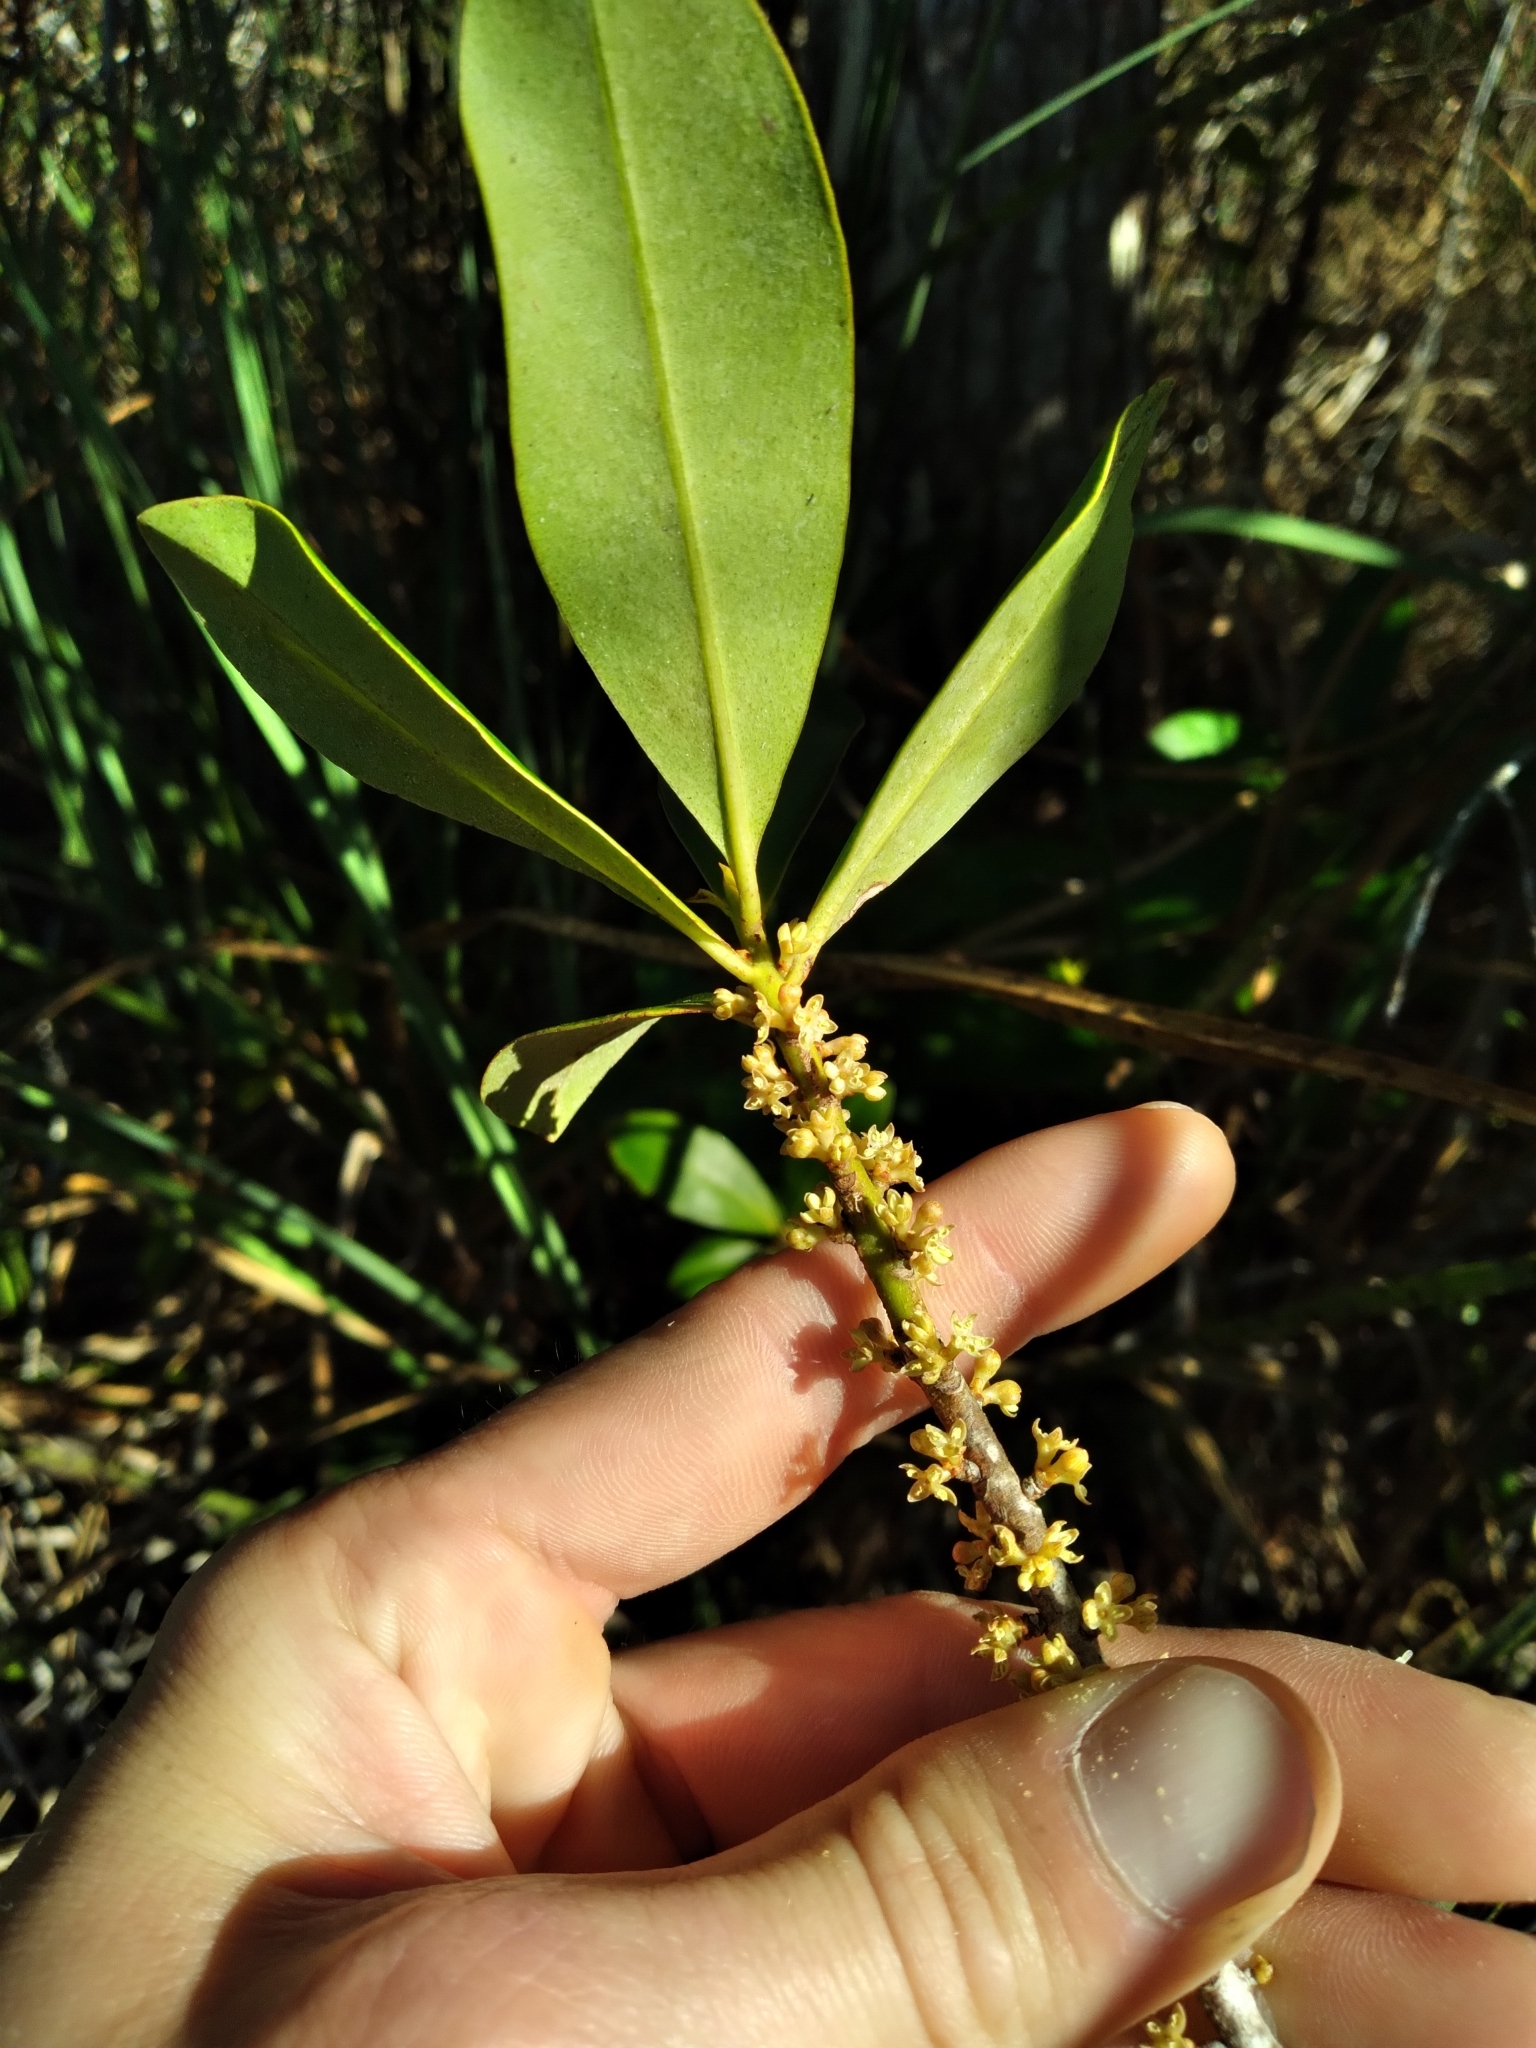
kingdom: Plantae
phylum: Tracheophyta
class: Magnoliopsida
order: Ericales
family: Primulaceae
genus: Myrsine
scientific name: Myrsine floridana
